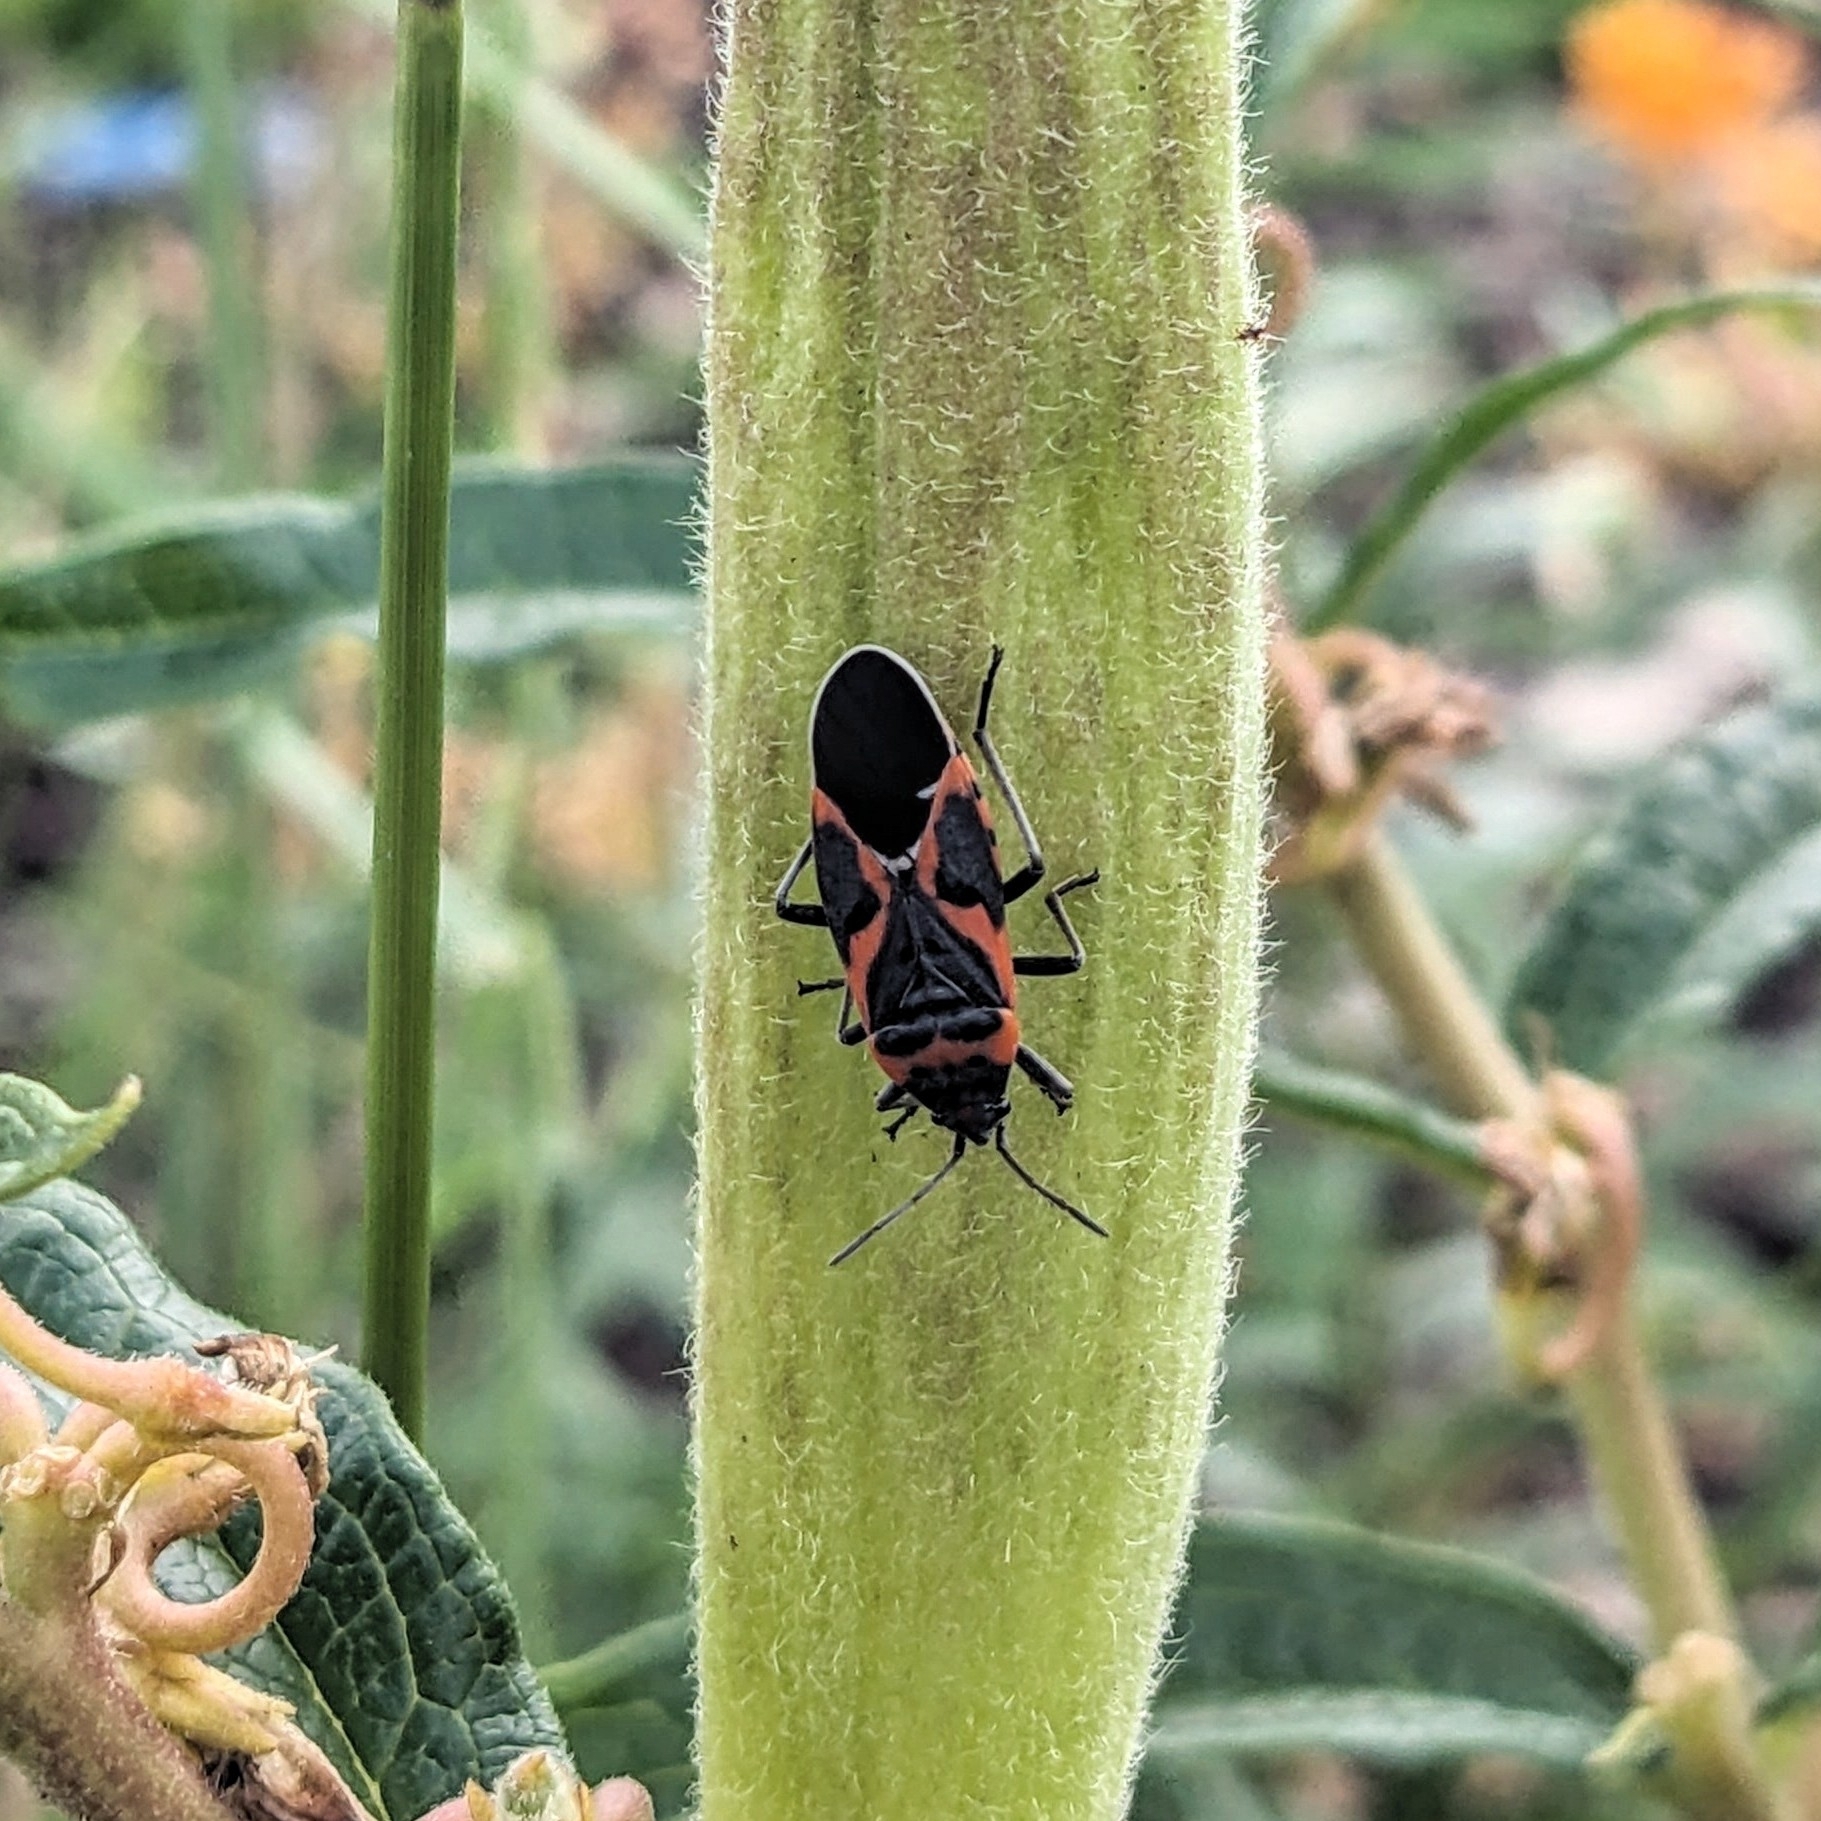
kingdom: Animalia
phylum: Arthropoda
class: Insecta
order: Hemiptera
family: Lygaeidae
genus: Lygaeus
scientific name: Lygaeus kalmii
